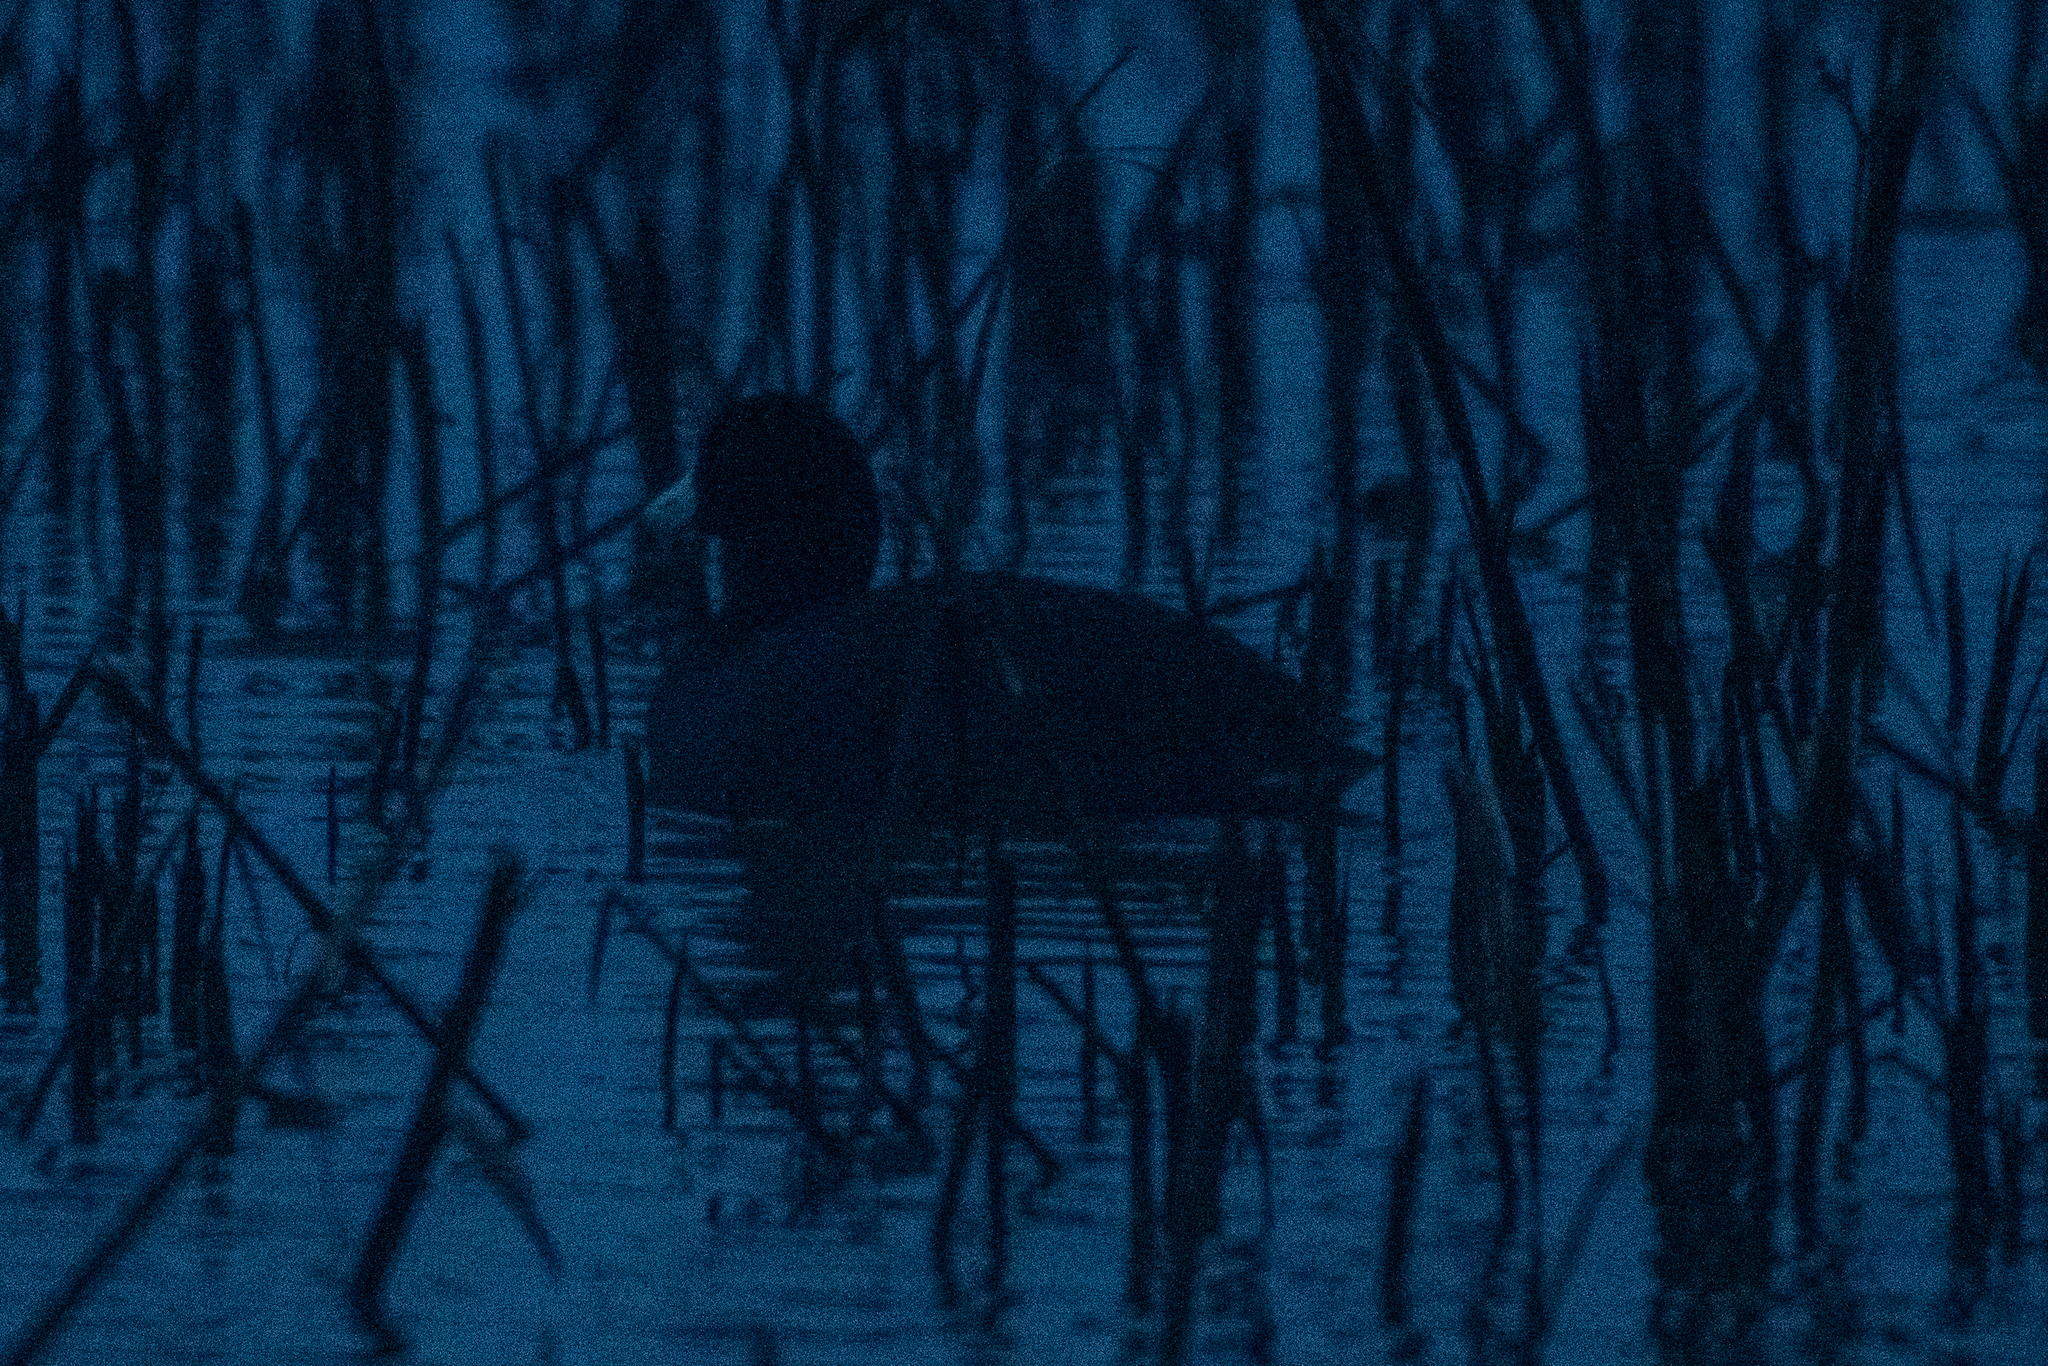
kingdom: Animalia
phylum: Chordata
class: Aves
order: Gruiformes
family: Rallidae
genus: Fulica
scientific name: Fulica americana
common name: American coot
